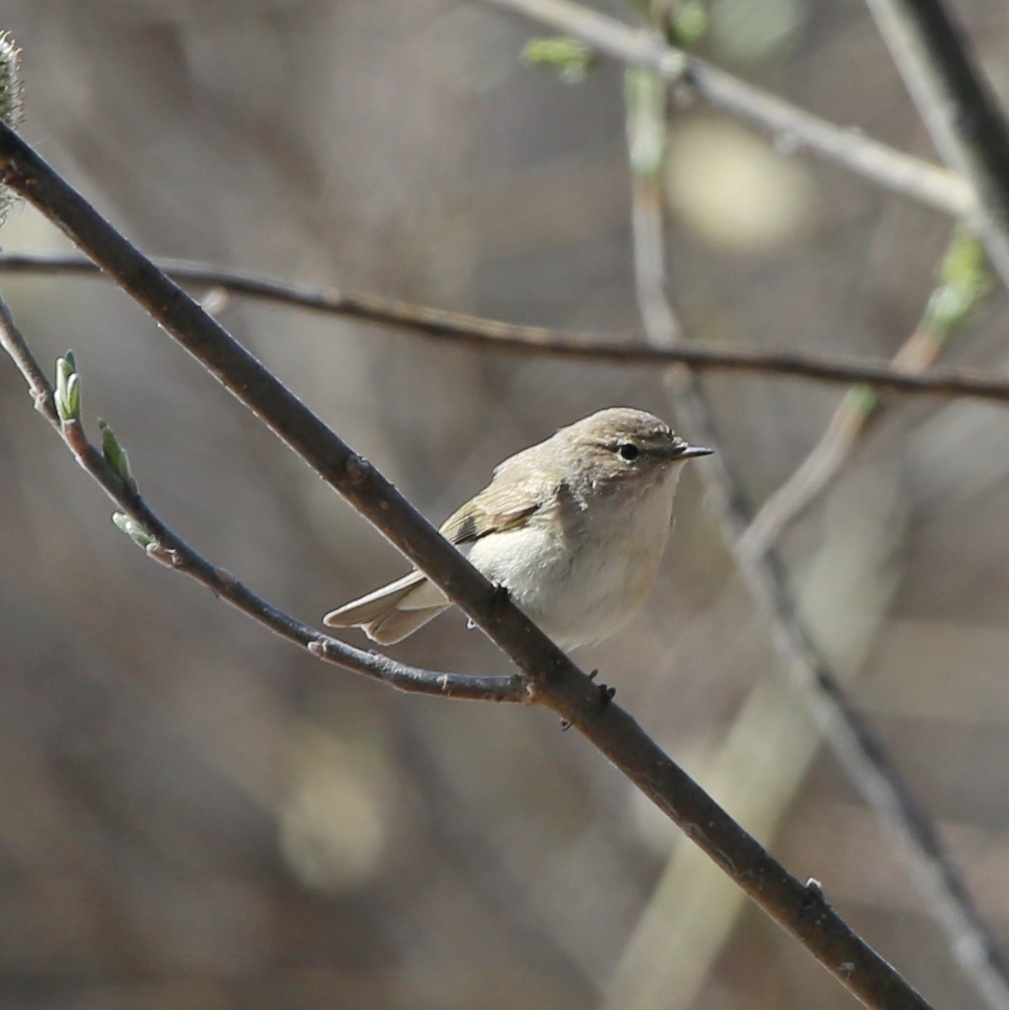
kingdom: Animalia
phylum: Chordata
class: Aves
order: Passeriformes
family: Phylloscopidae
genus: Phylloscopus
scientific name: Phylloscopus collybita
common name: Common chiffchaff
